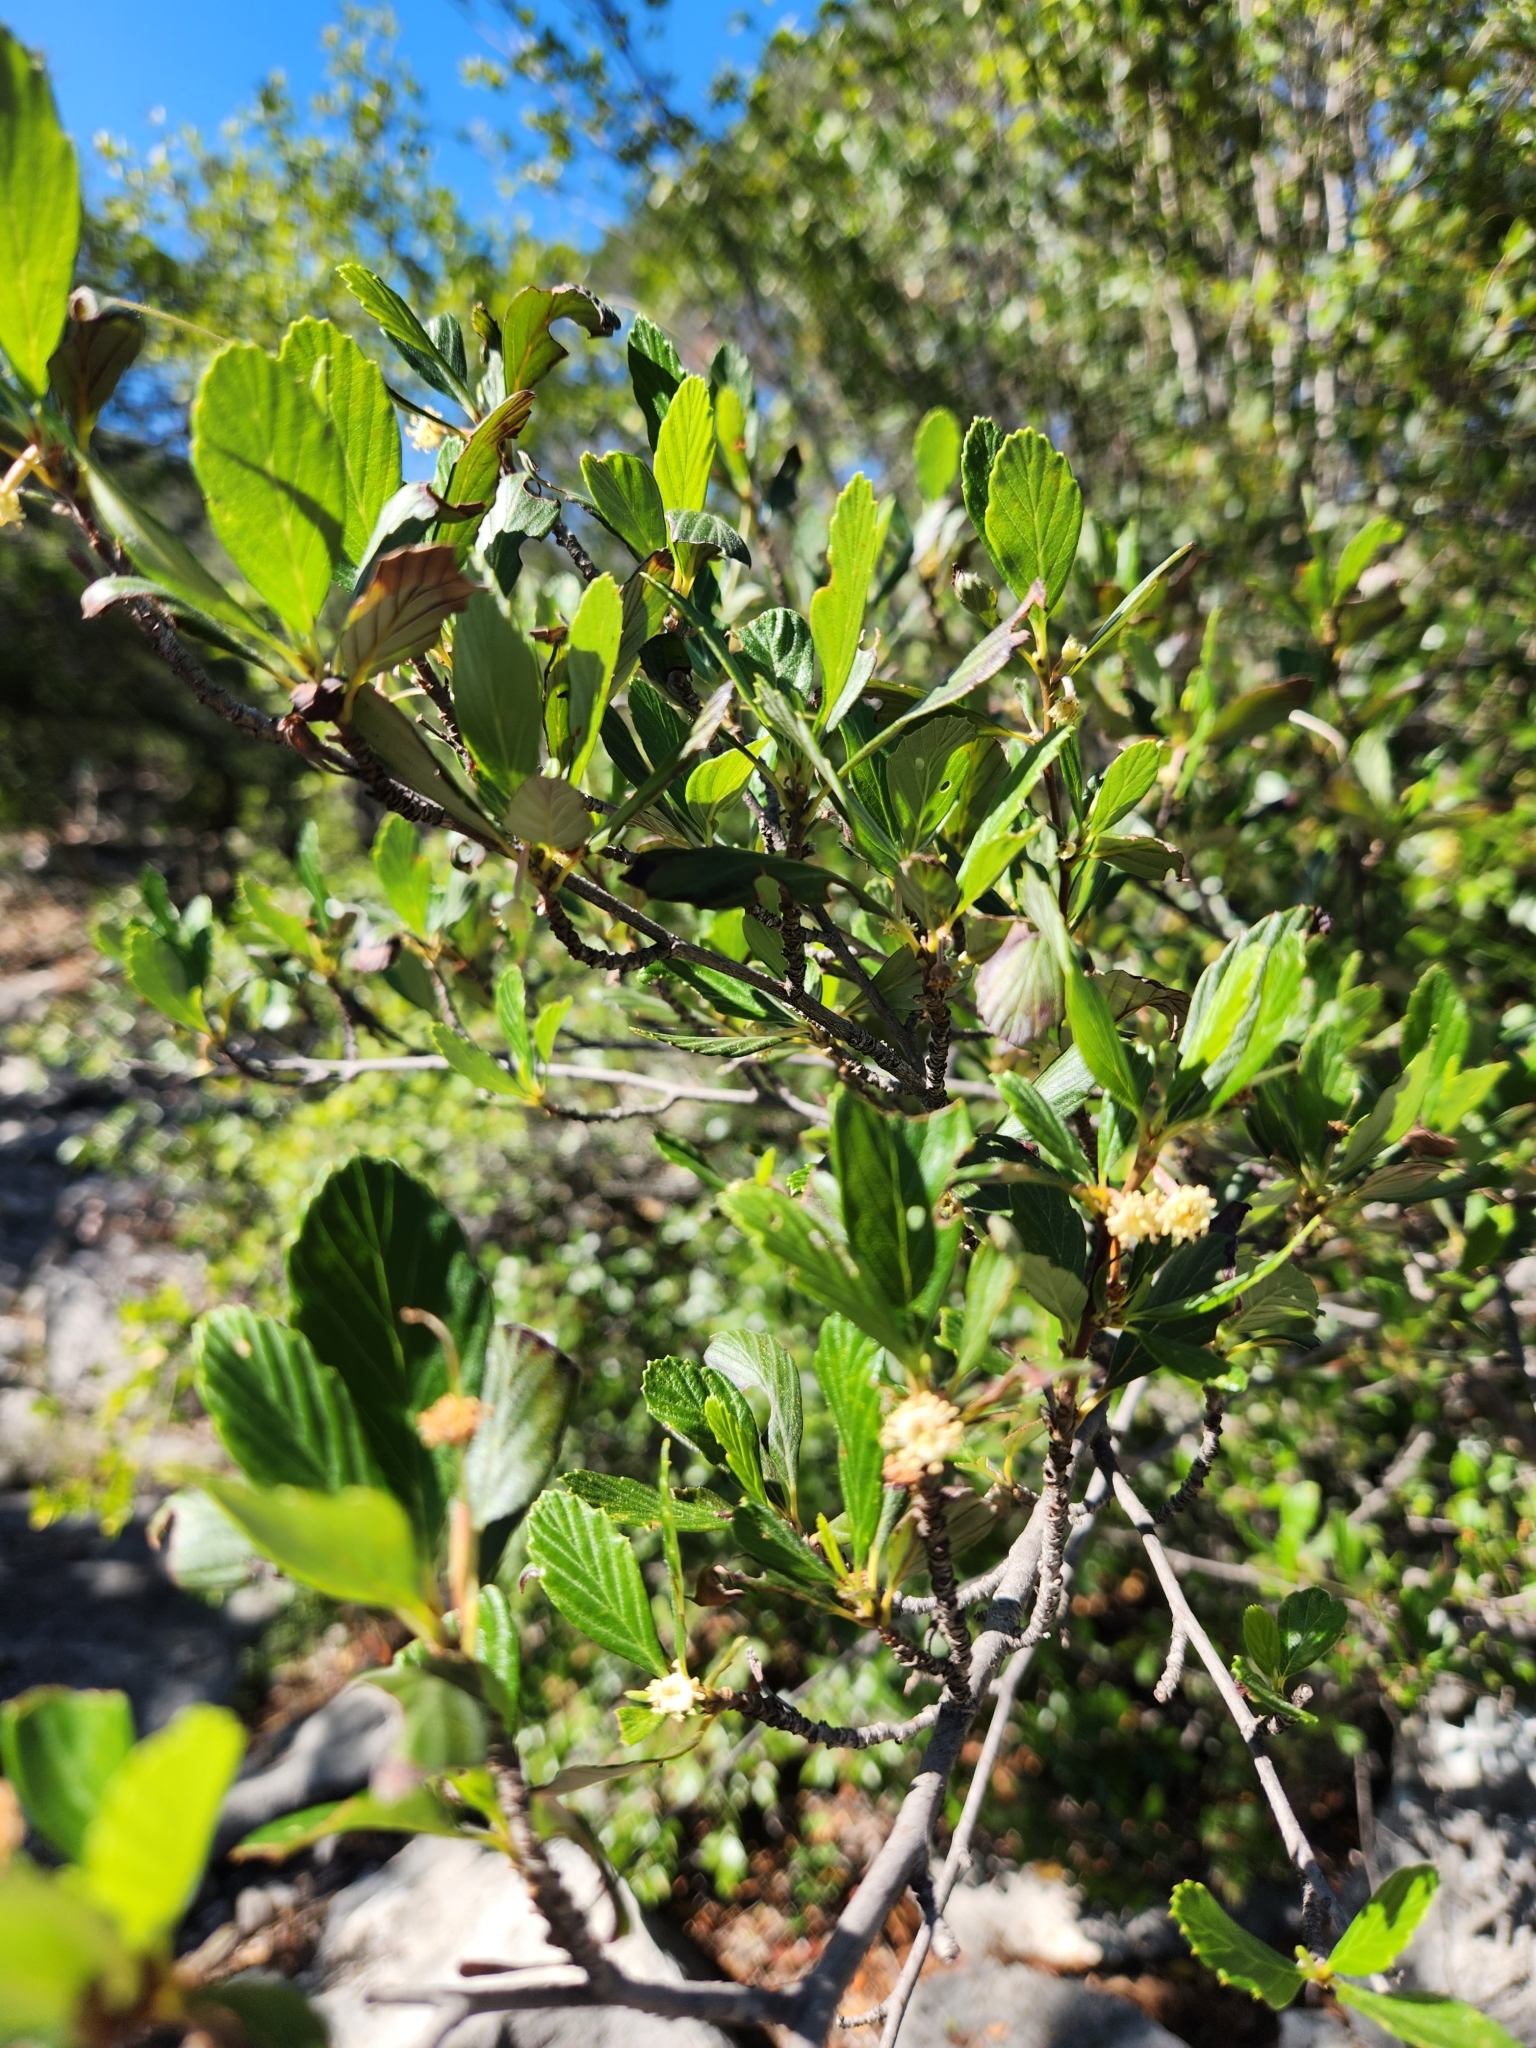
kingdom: Plantae
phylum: Tracheophyta
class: Magnoliopsida
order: Rosales
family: Rosaceae
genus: Cercocarpus
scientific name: Cercocarpus montanus
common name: Alder-leaf cercocarpus
